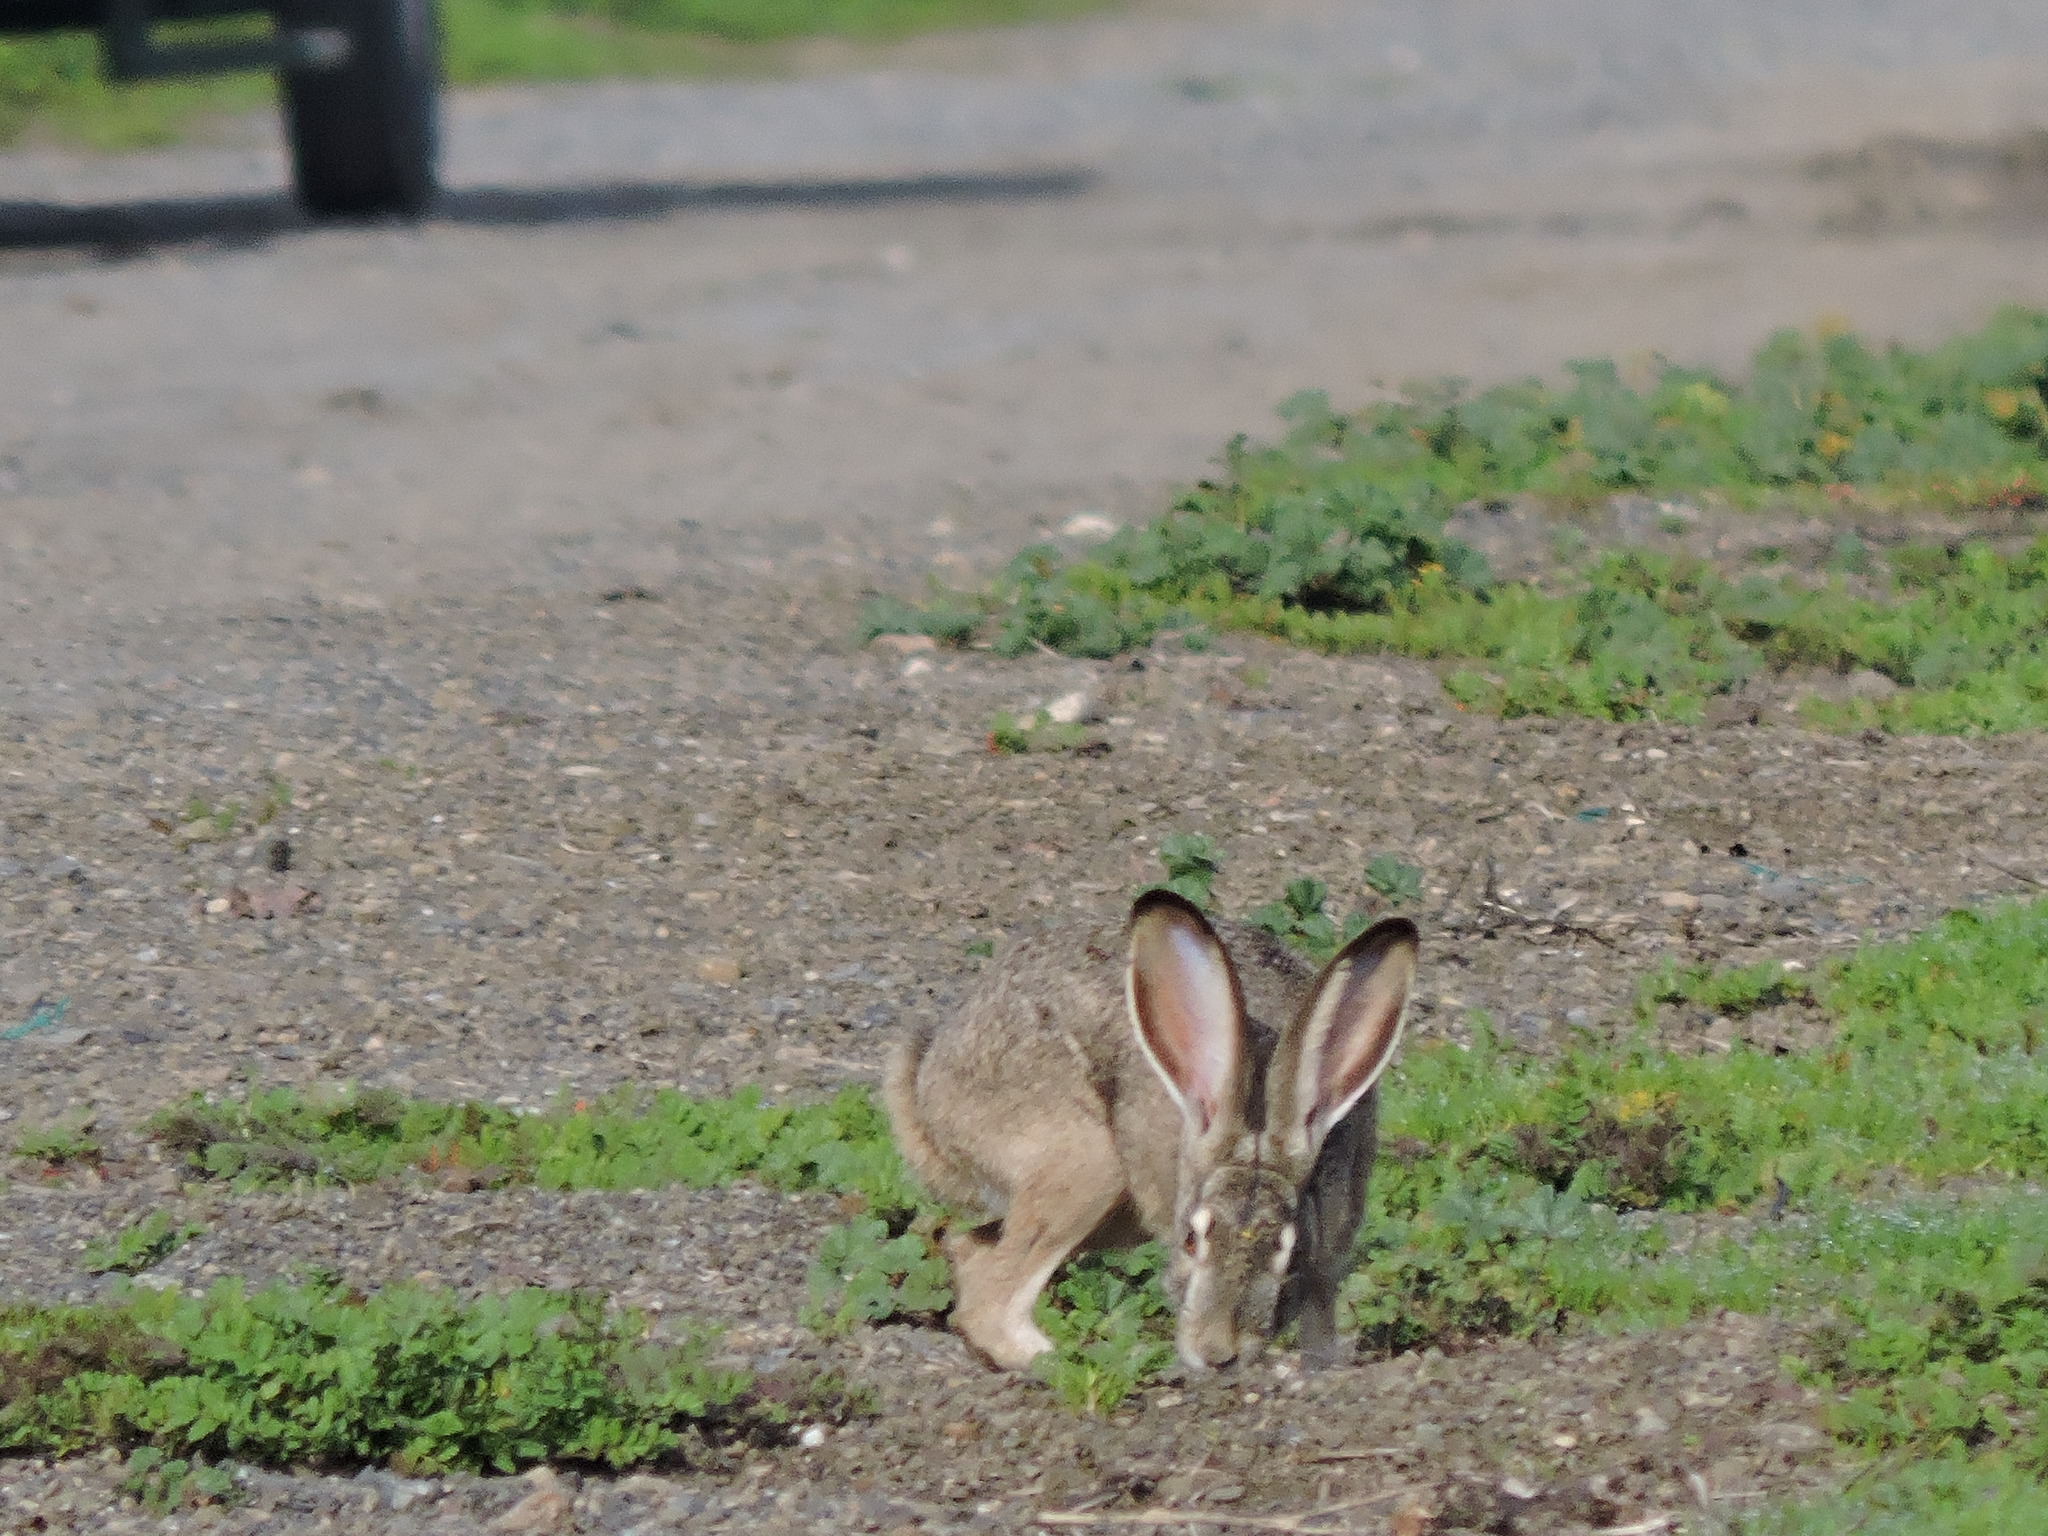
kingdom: Animalia
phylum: Chordata
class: Mammalia
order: Lagomorpha
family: Leporidae
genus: Lepus
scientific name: Lepus californicus
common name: Black-tailed jackrabbit
